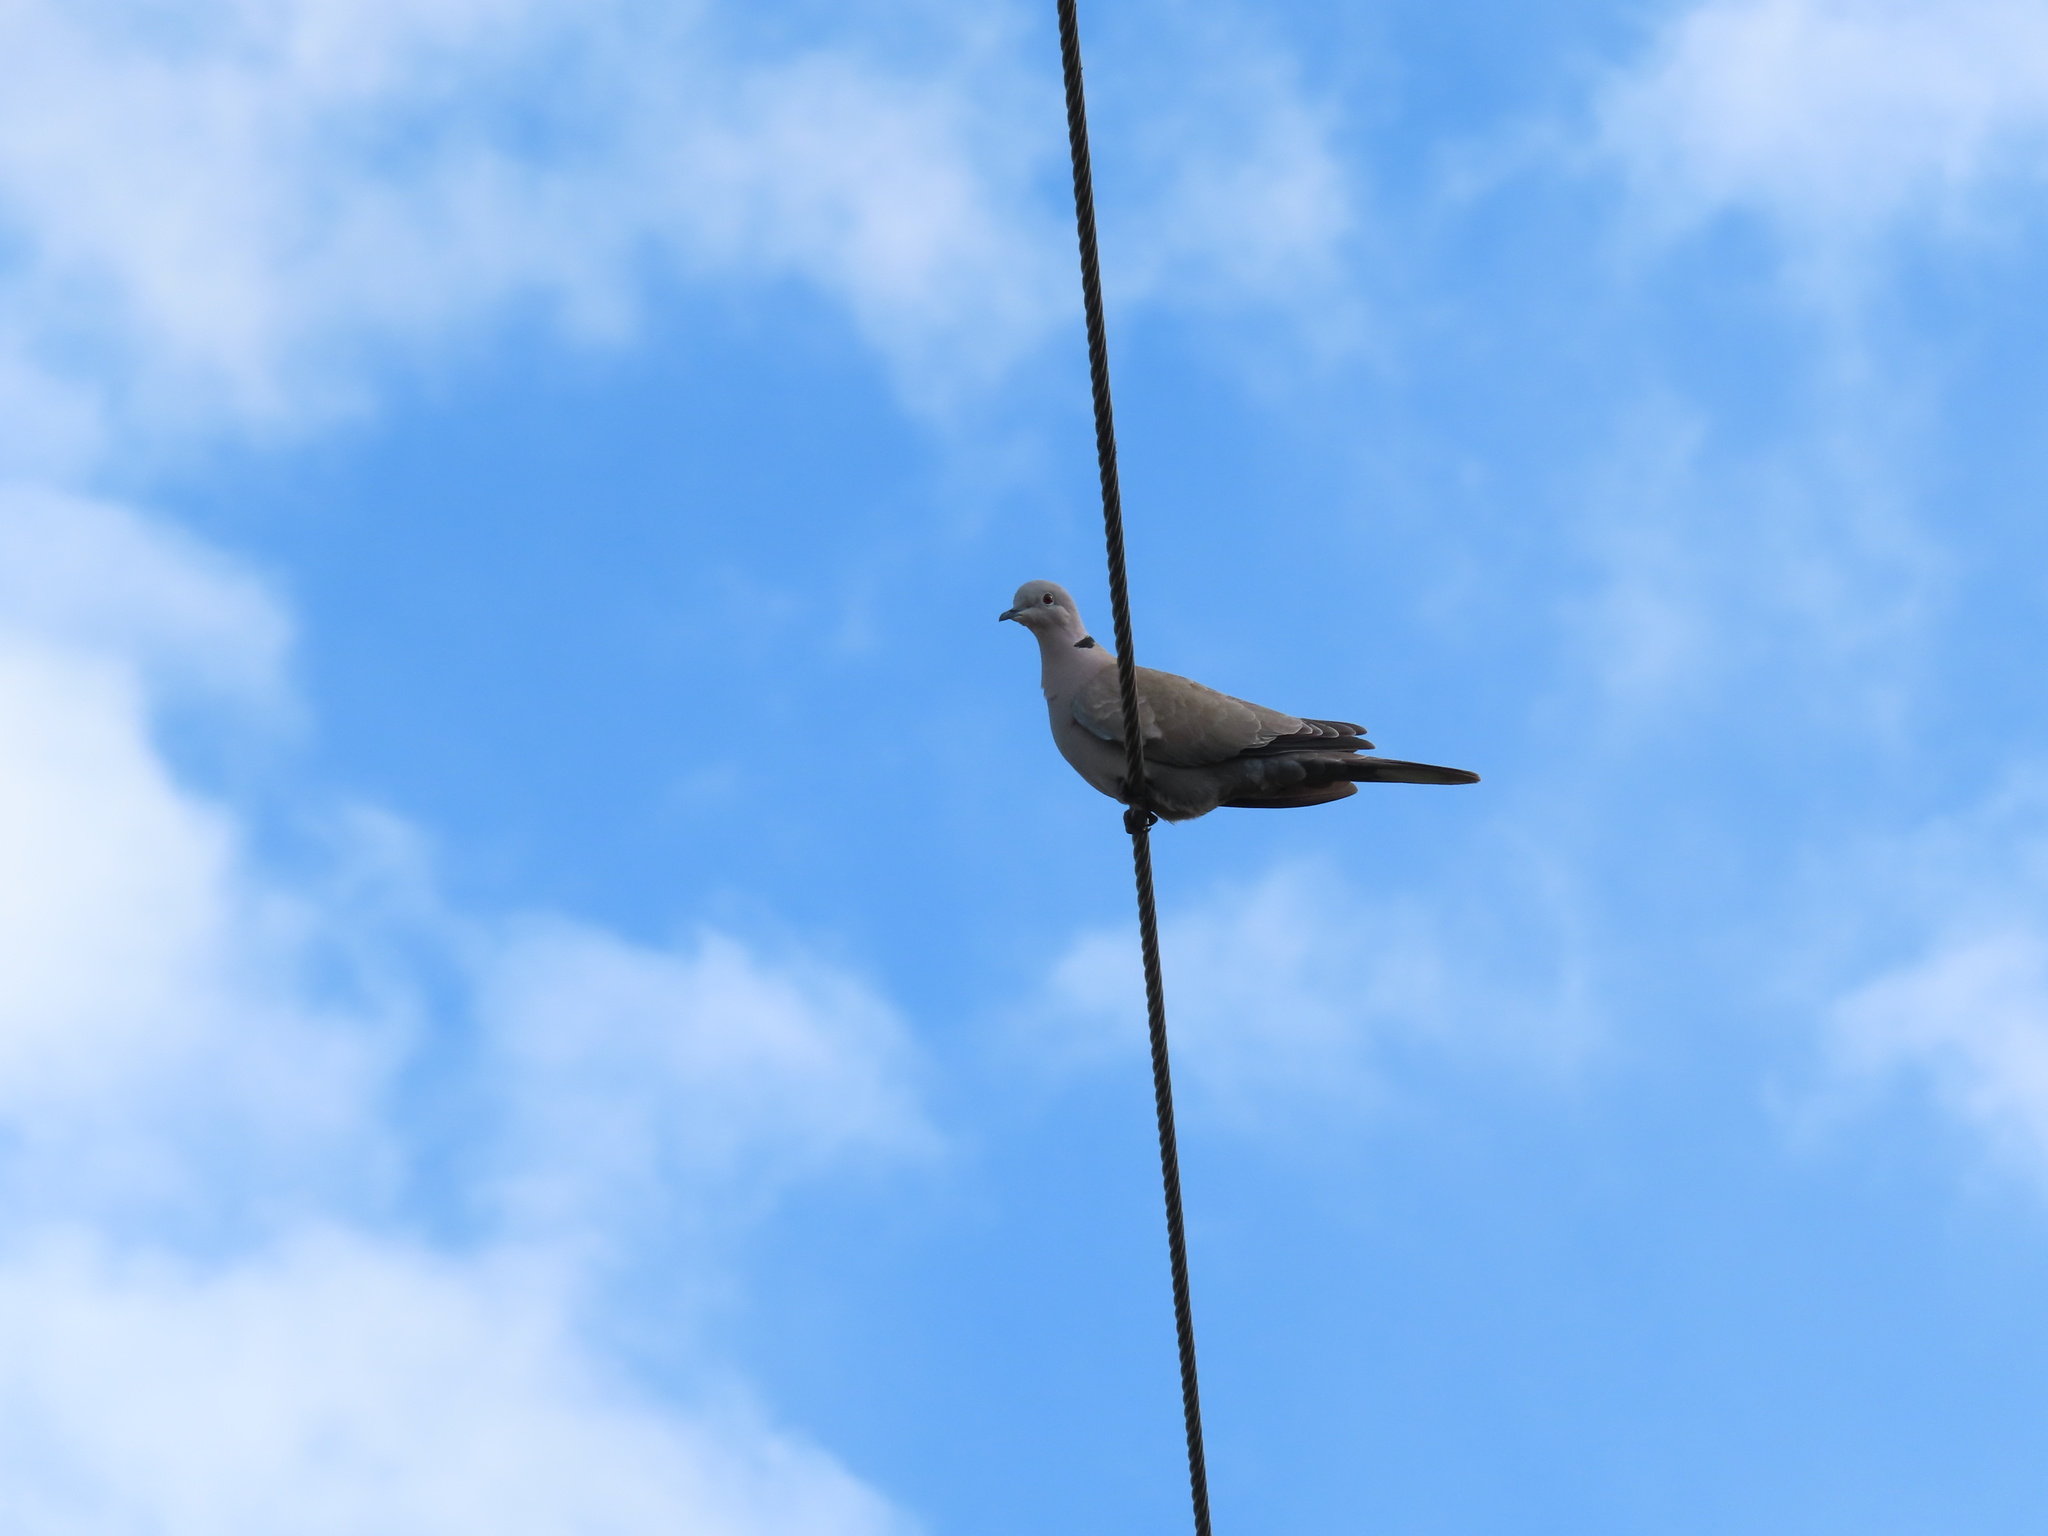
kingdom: Animalia
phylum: Chordata
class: Aves
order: Columbiformes
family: Columbidae
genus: Streptopelia
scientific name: Streptopelia decaocto
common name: Eurasian collared dove
